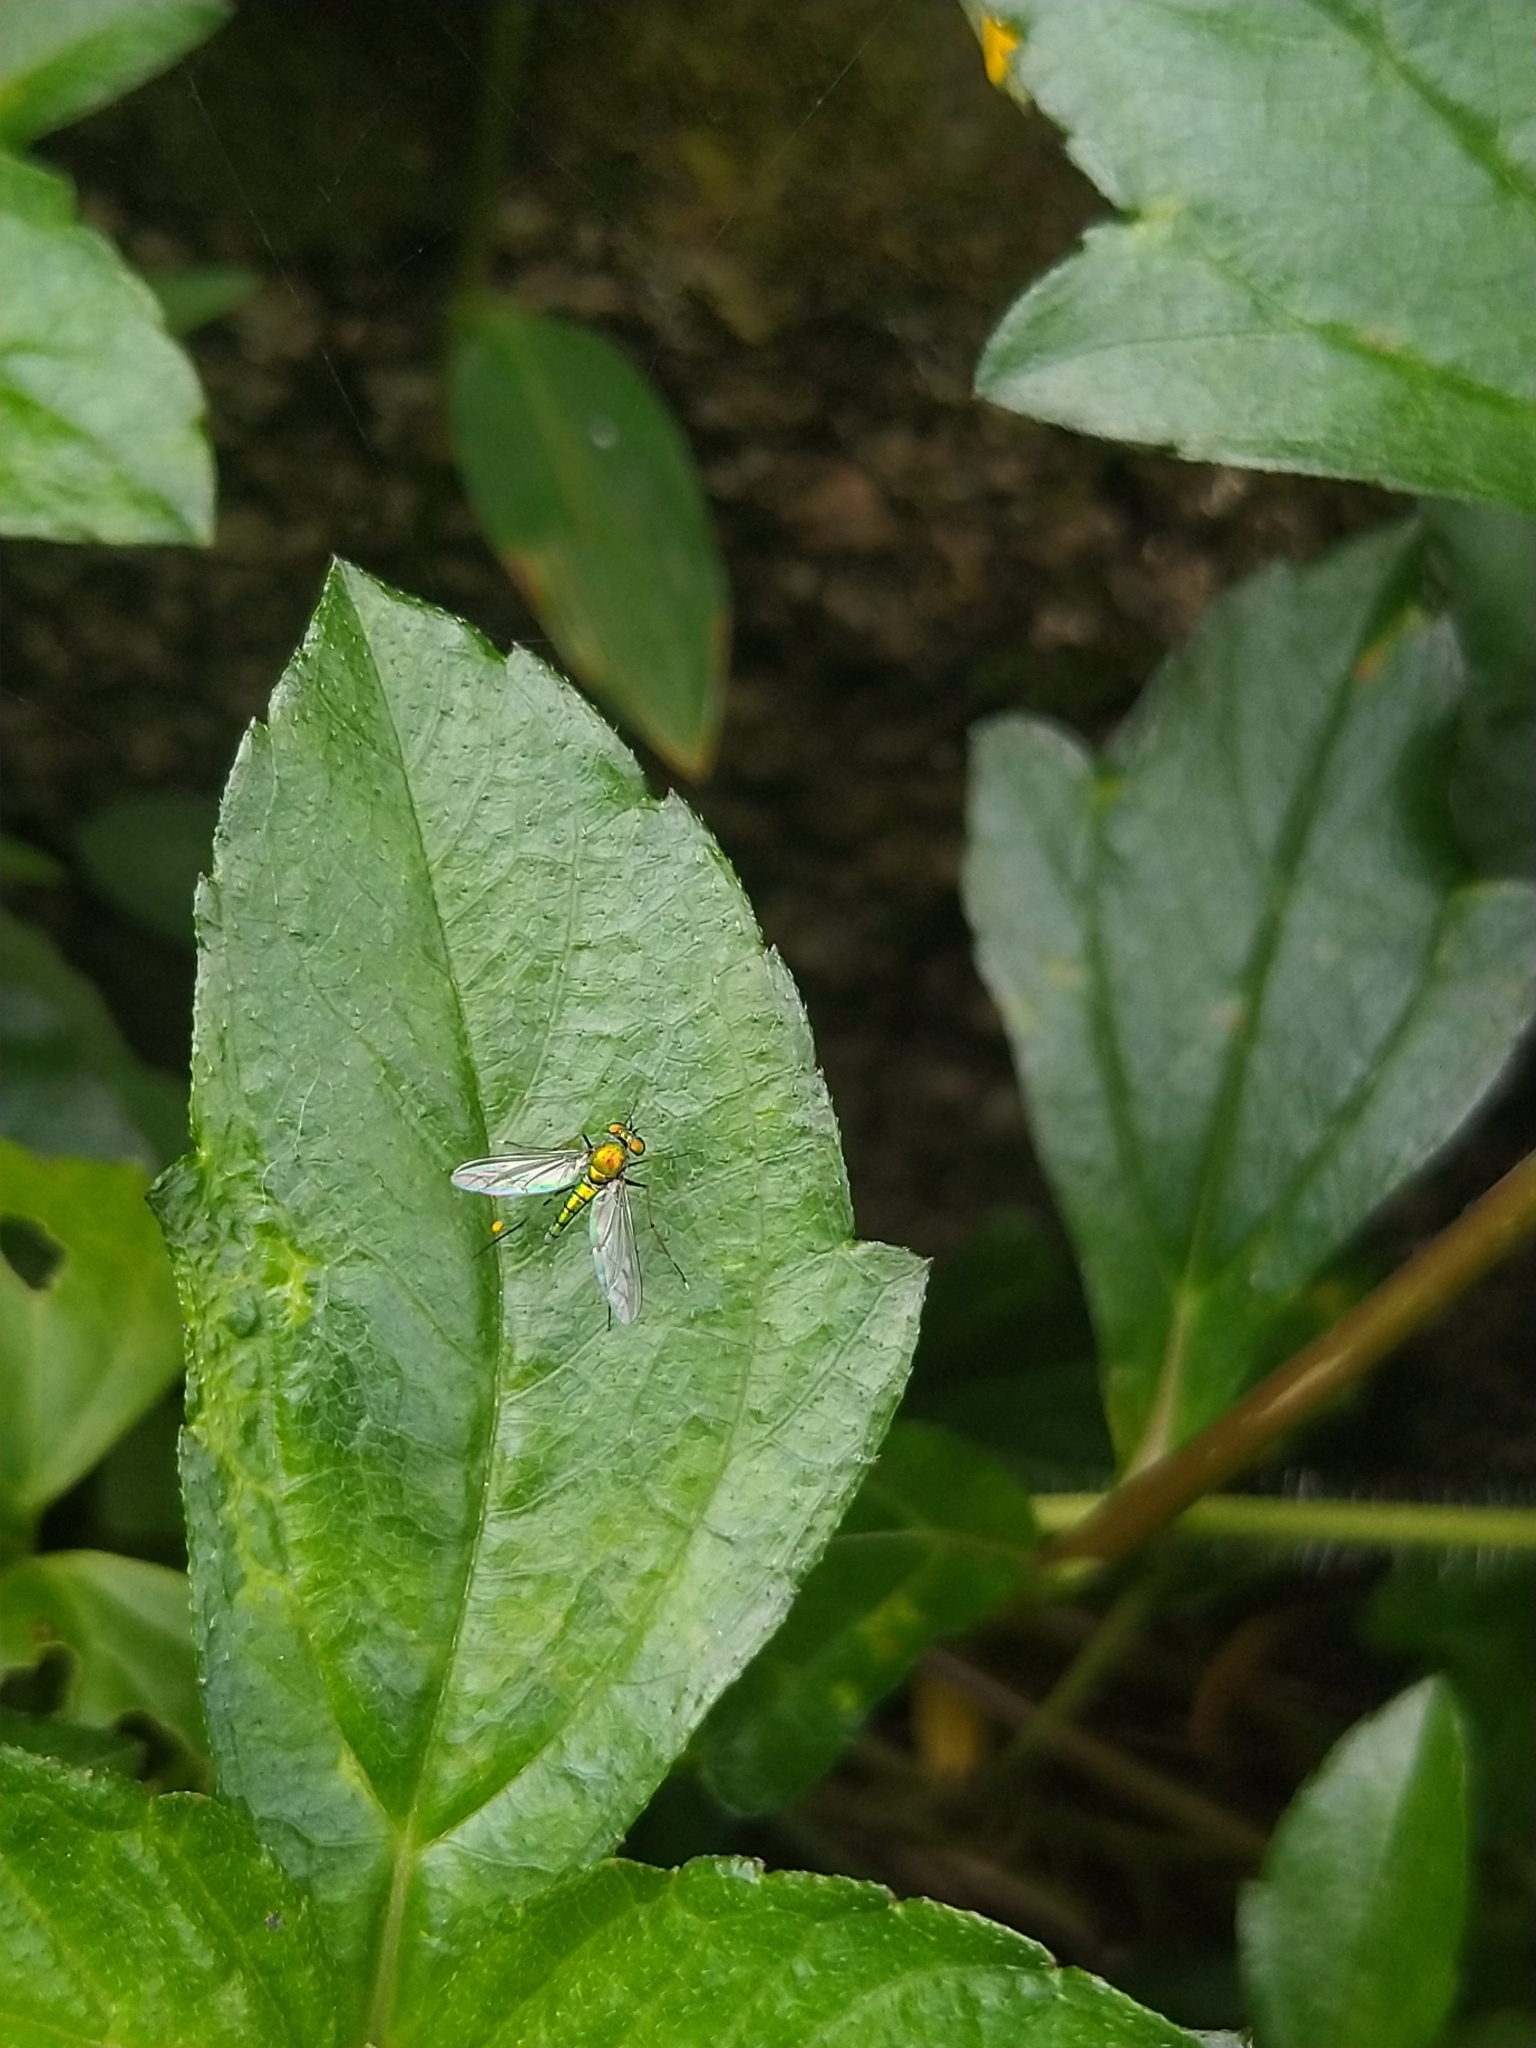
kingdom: Animalia
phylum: Arthropoda
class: Insecta
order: Diptera
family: Dolichopodidae
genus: Chrysosoma
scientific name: Chrysosoma leucopogon
